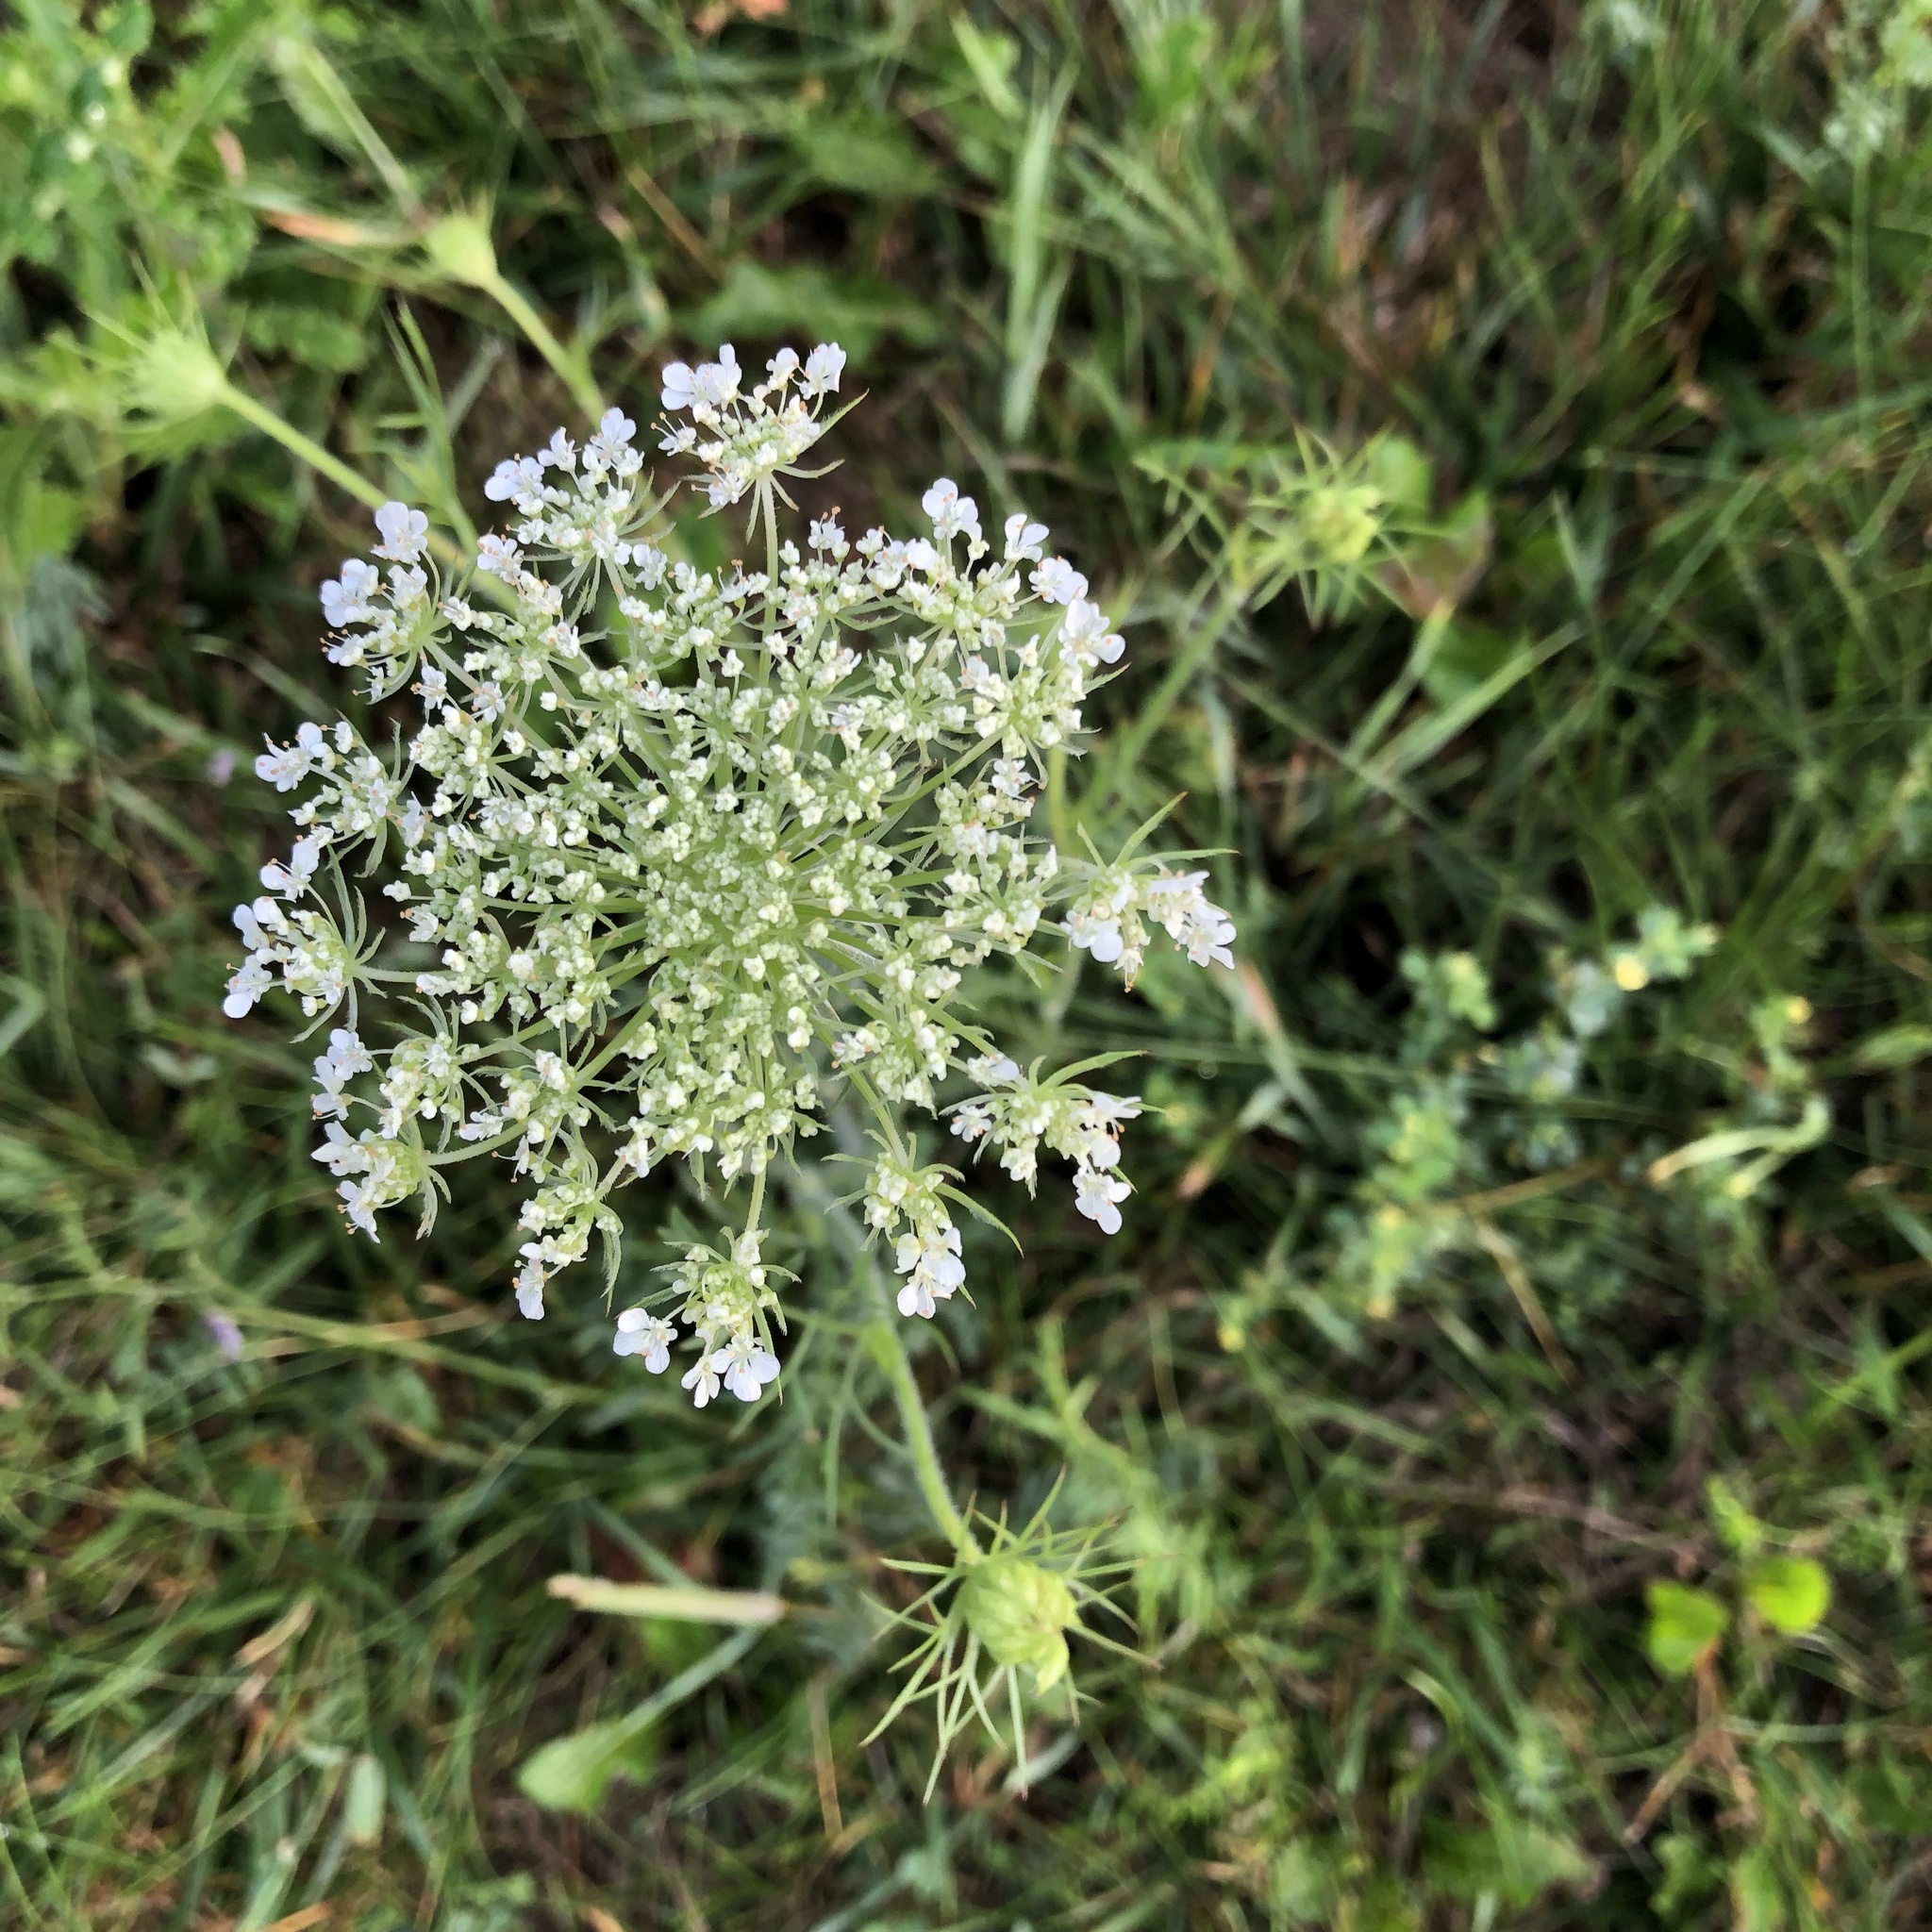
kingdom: Plantae
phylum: Tracheophyta
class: Magnoliopsida
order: Apiales
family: Apiaceae
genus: Daucus
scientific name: Daucus carota
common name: Wild carrot
